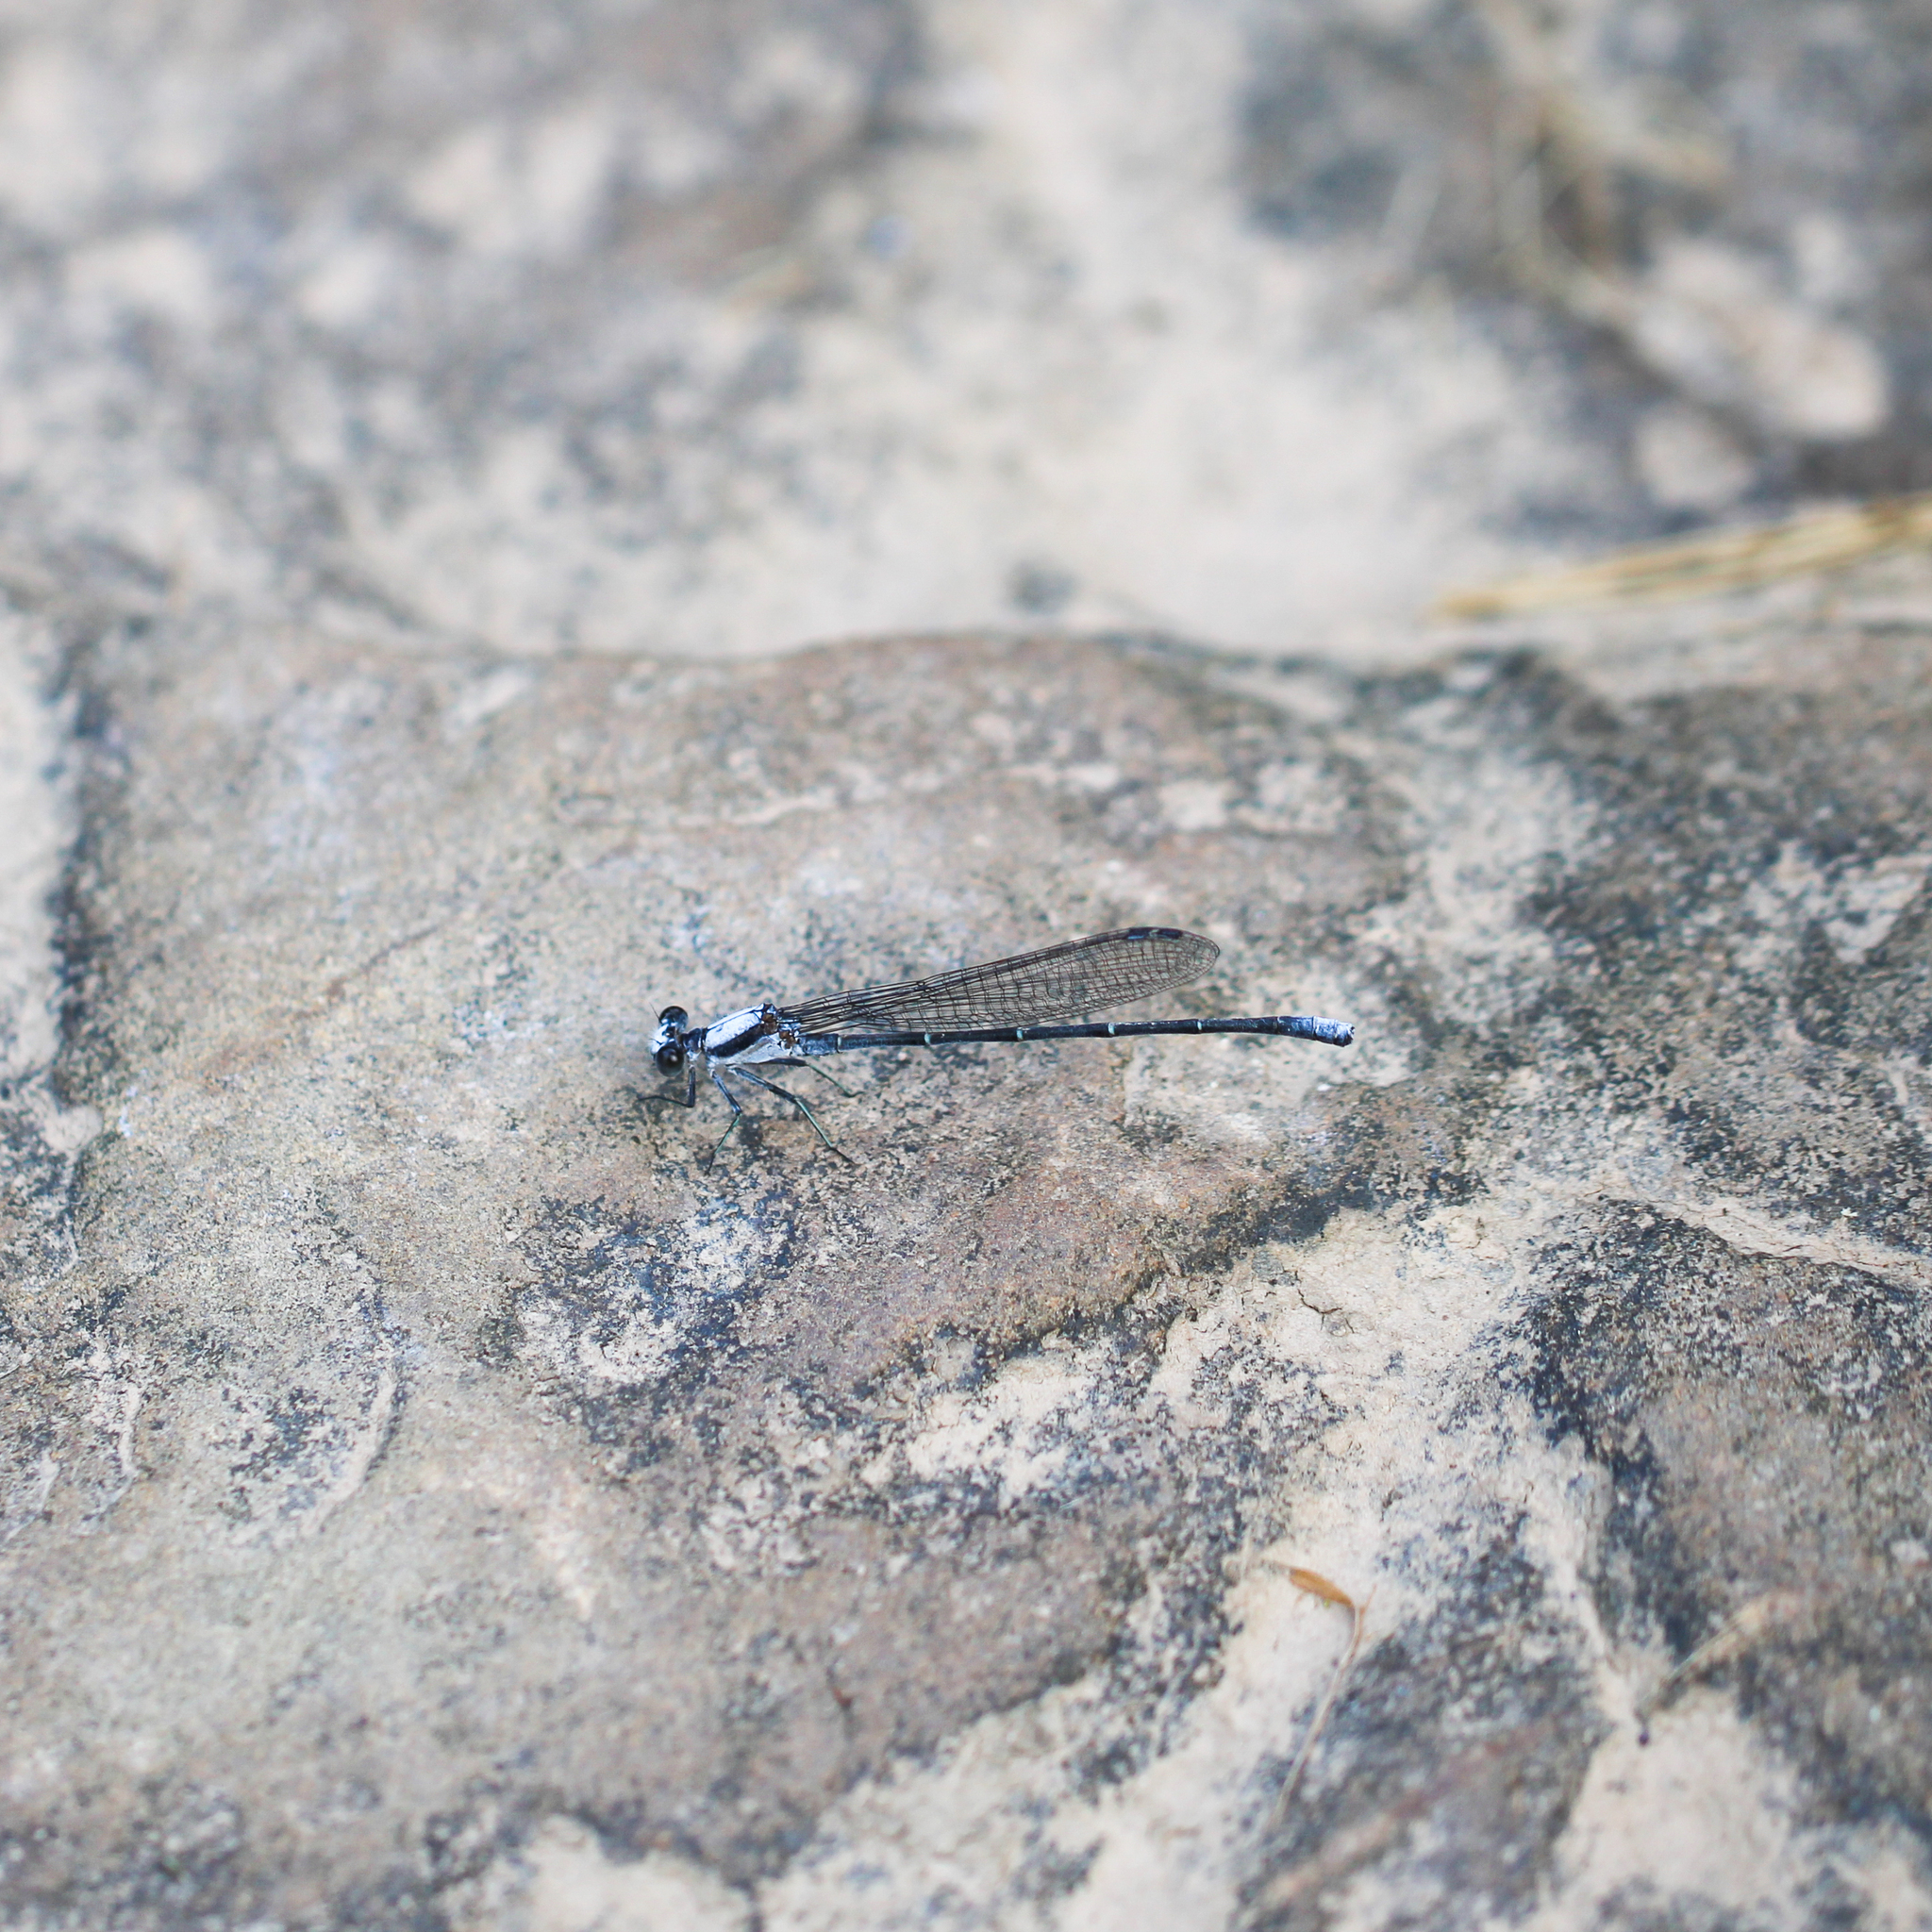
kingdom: Animalia
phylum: Arthropoda
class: Insecta
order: Odonata
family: Coenagrionidae
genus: Argia
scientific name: Argia moesta
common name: Powdered dancer
